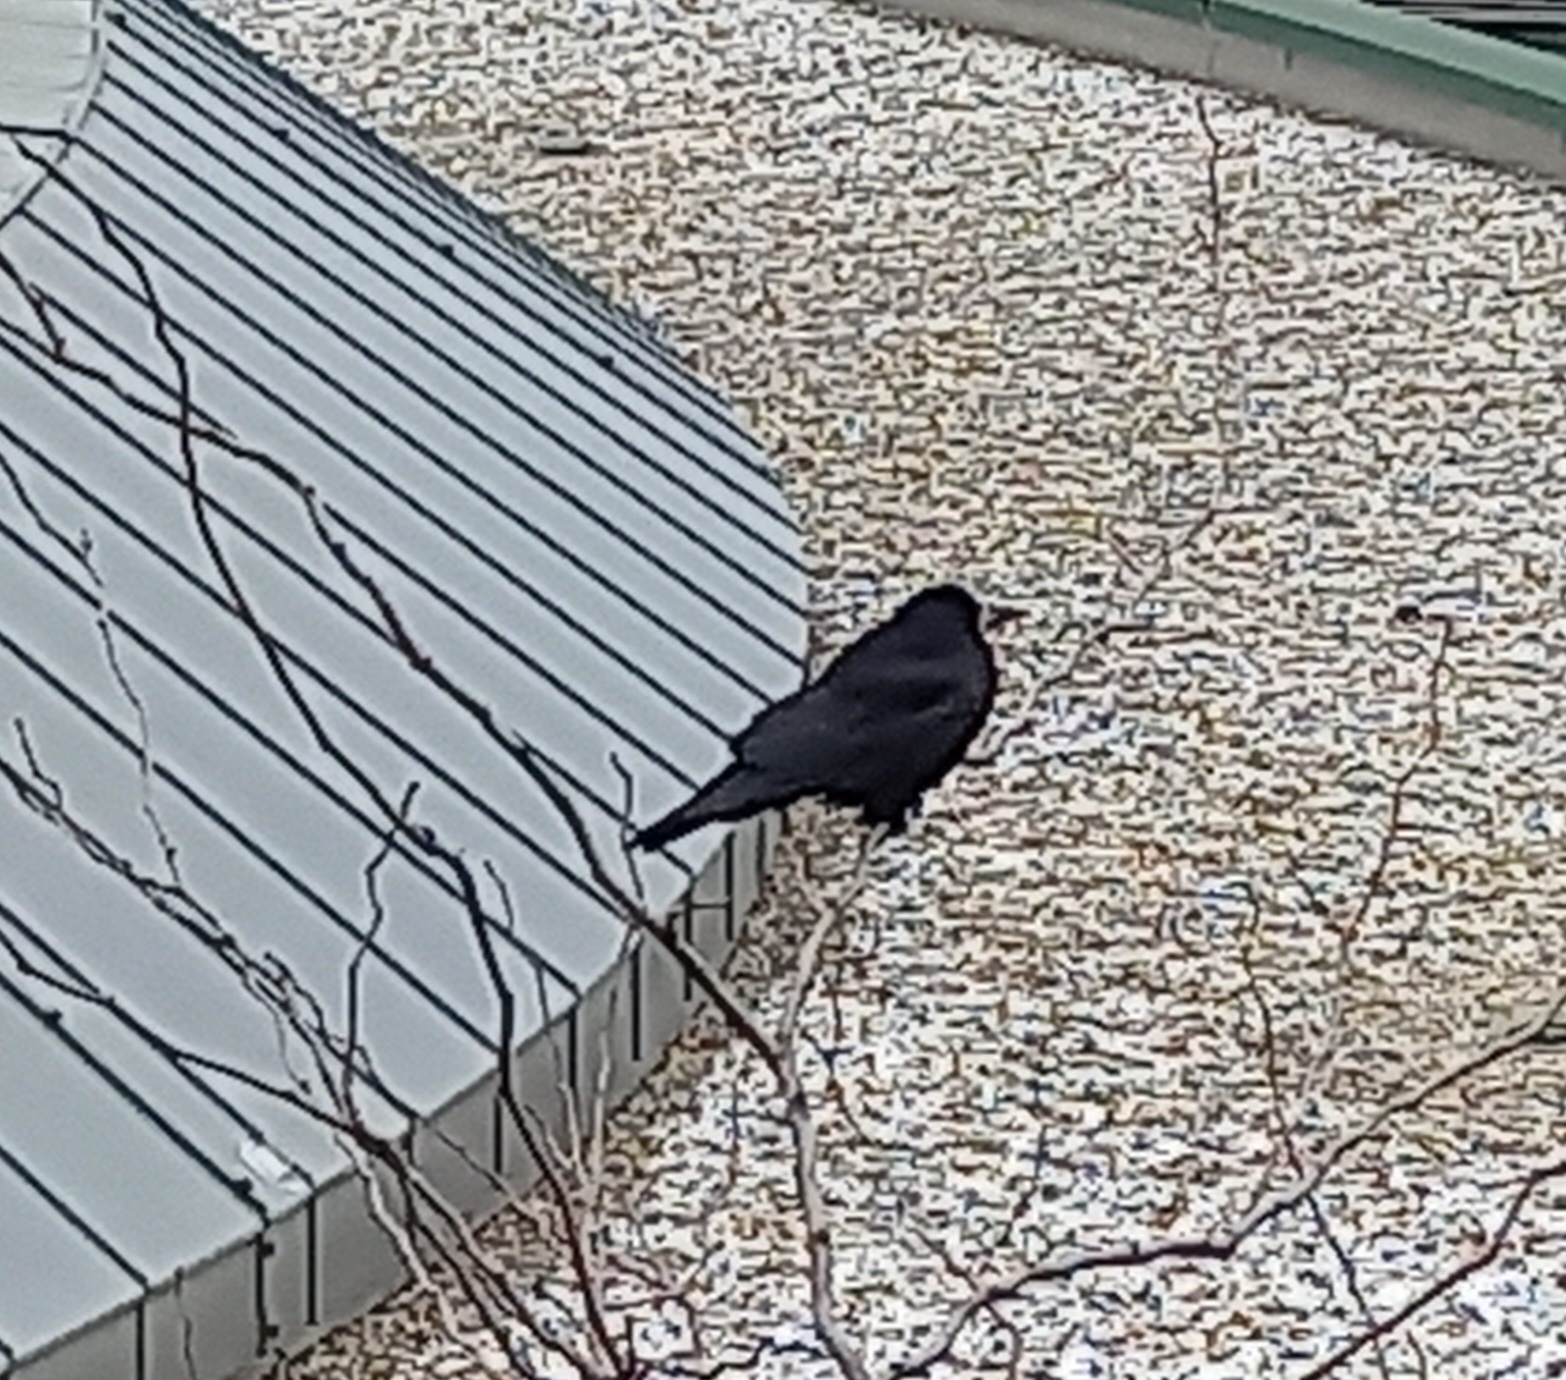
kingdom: Animalia
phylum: Chordata
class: Aves
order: Passeriformes
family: Corvidae
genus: Corvus
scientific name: Corvus frugilegus
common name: Rook
